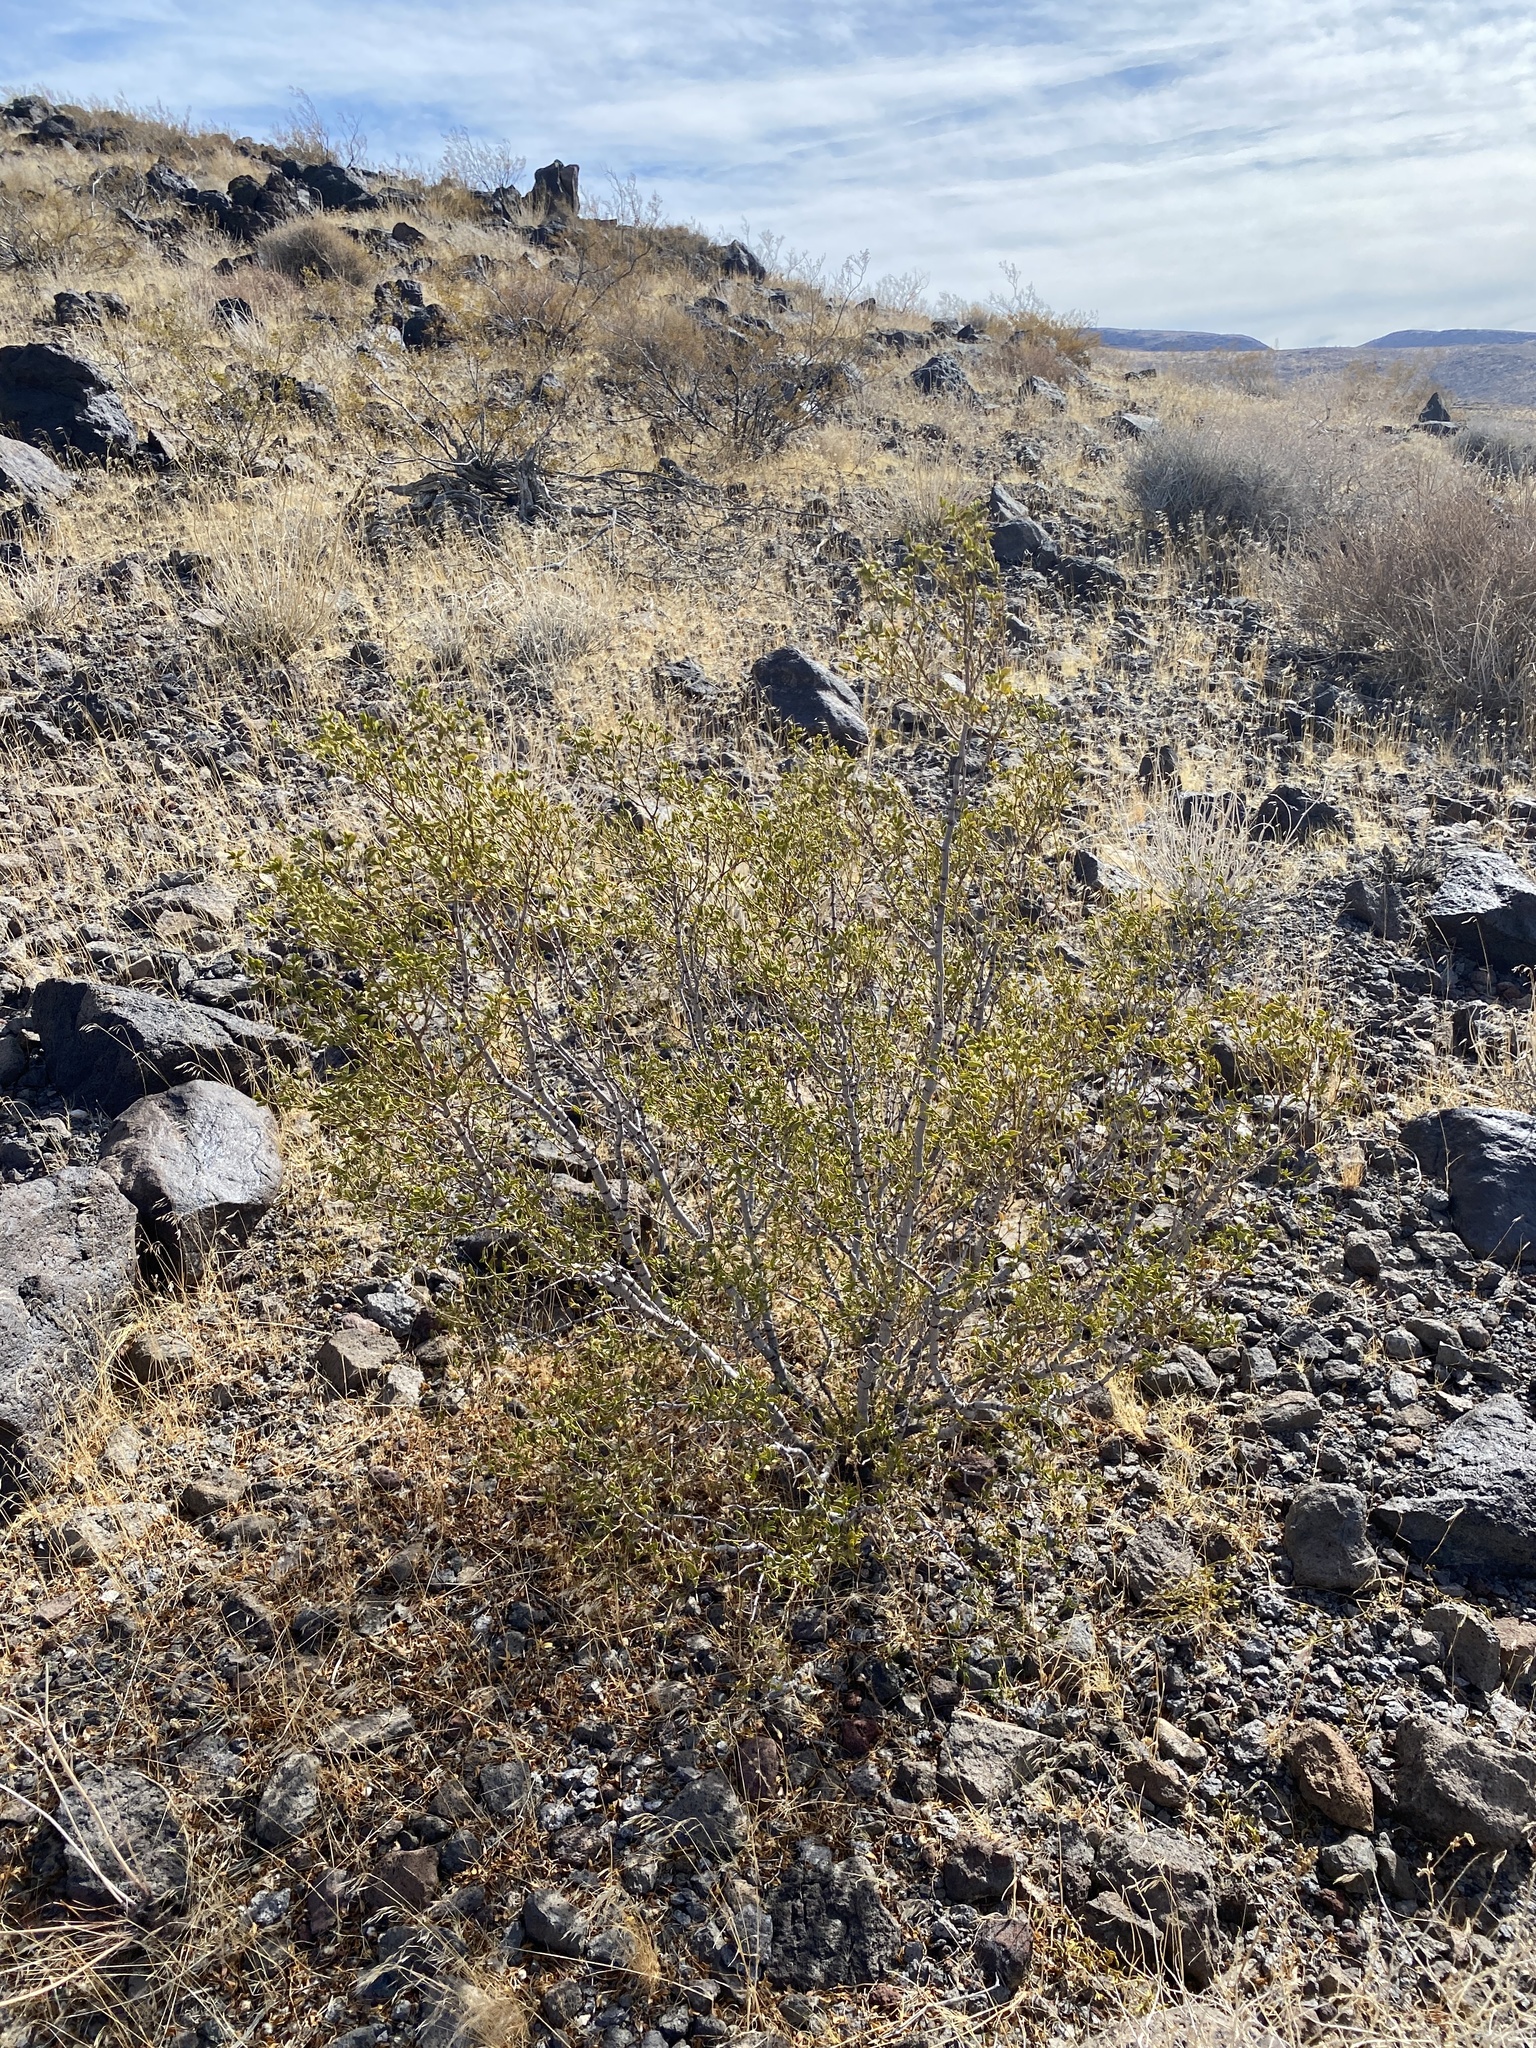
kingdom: Plantae
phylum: Tracheophyta
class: Magnoliopsida
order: Zygophyllales
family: Zygophyllaceae
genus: Larrea
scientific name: Larrea tridentata
